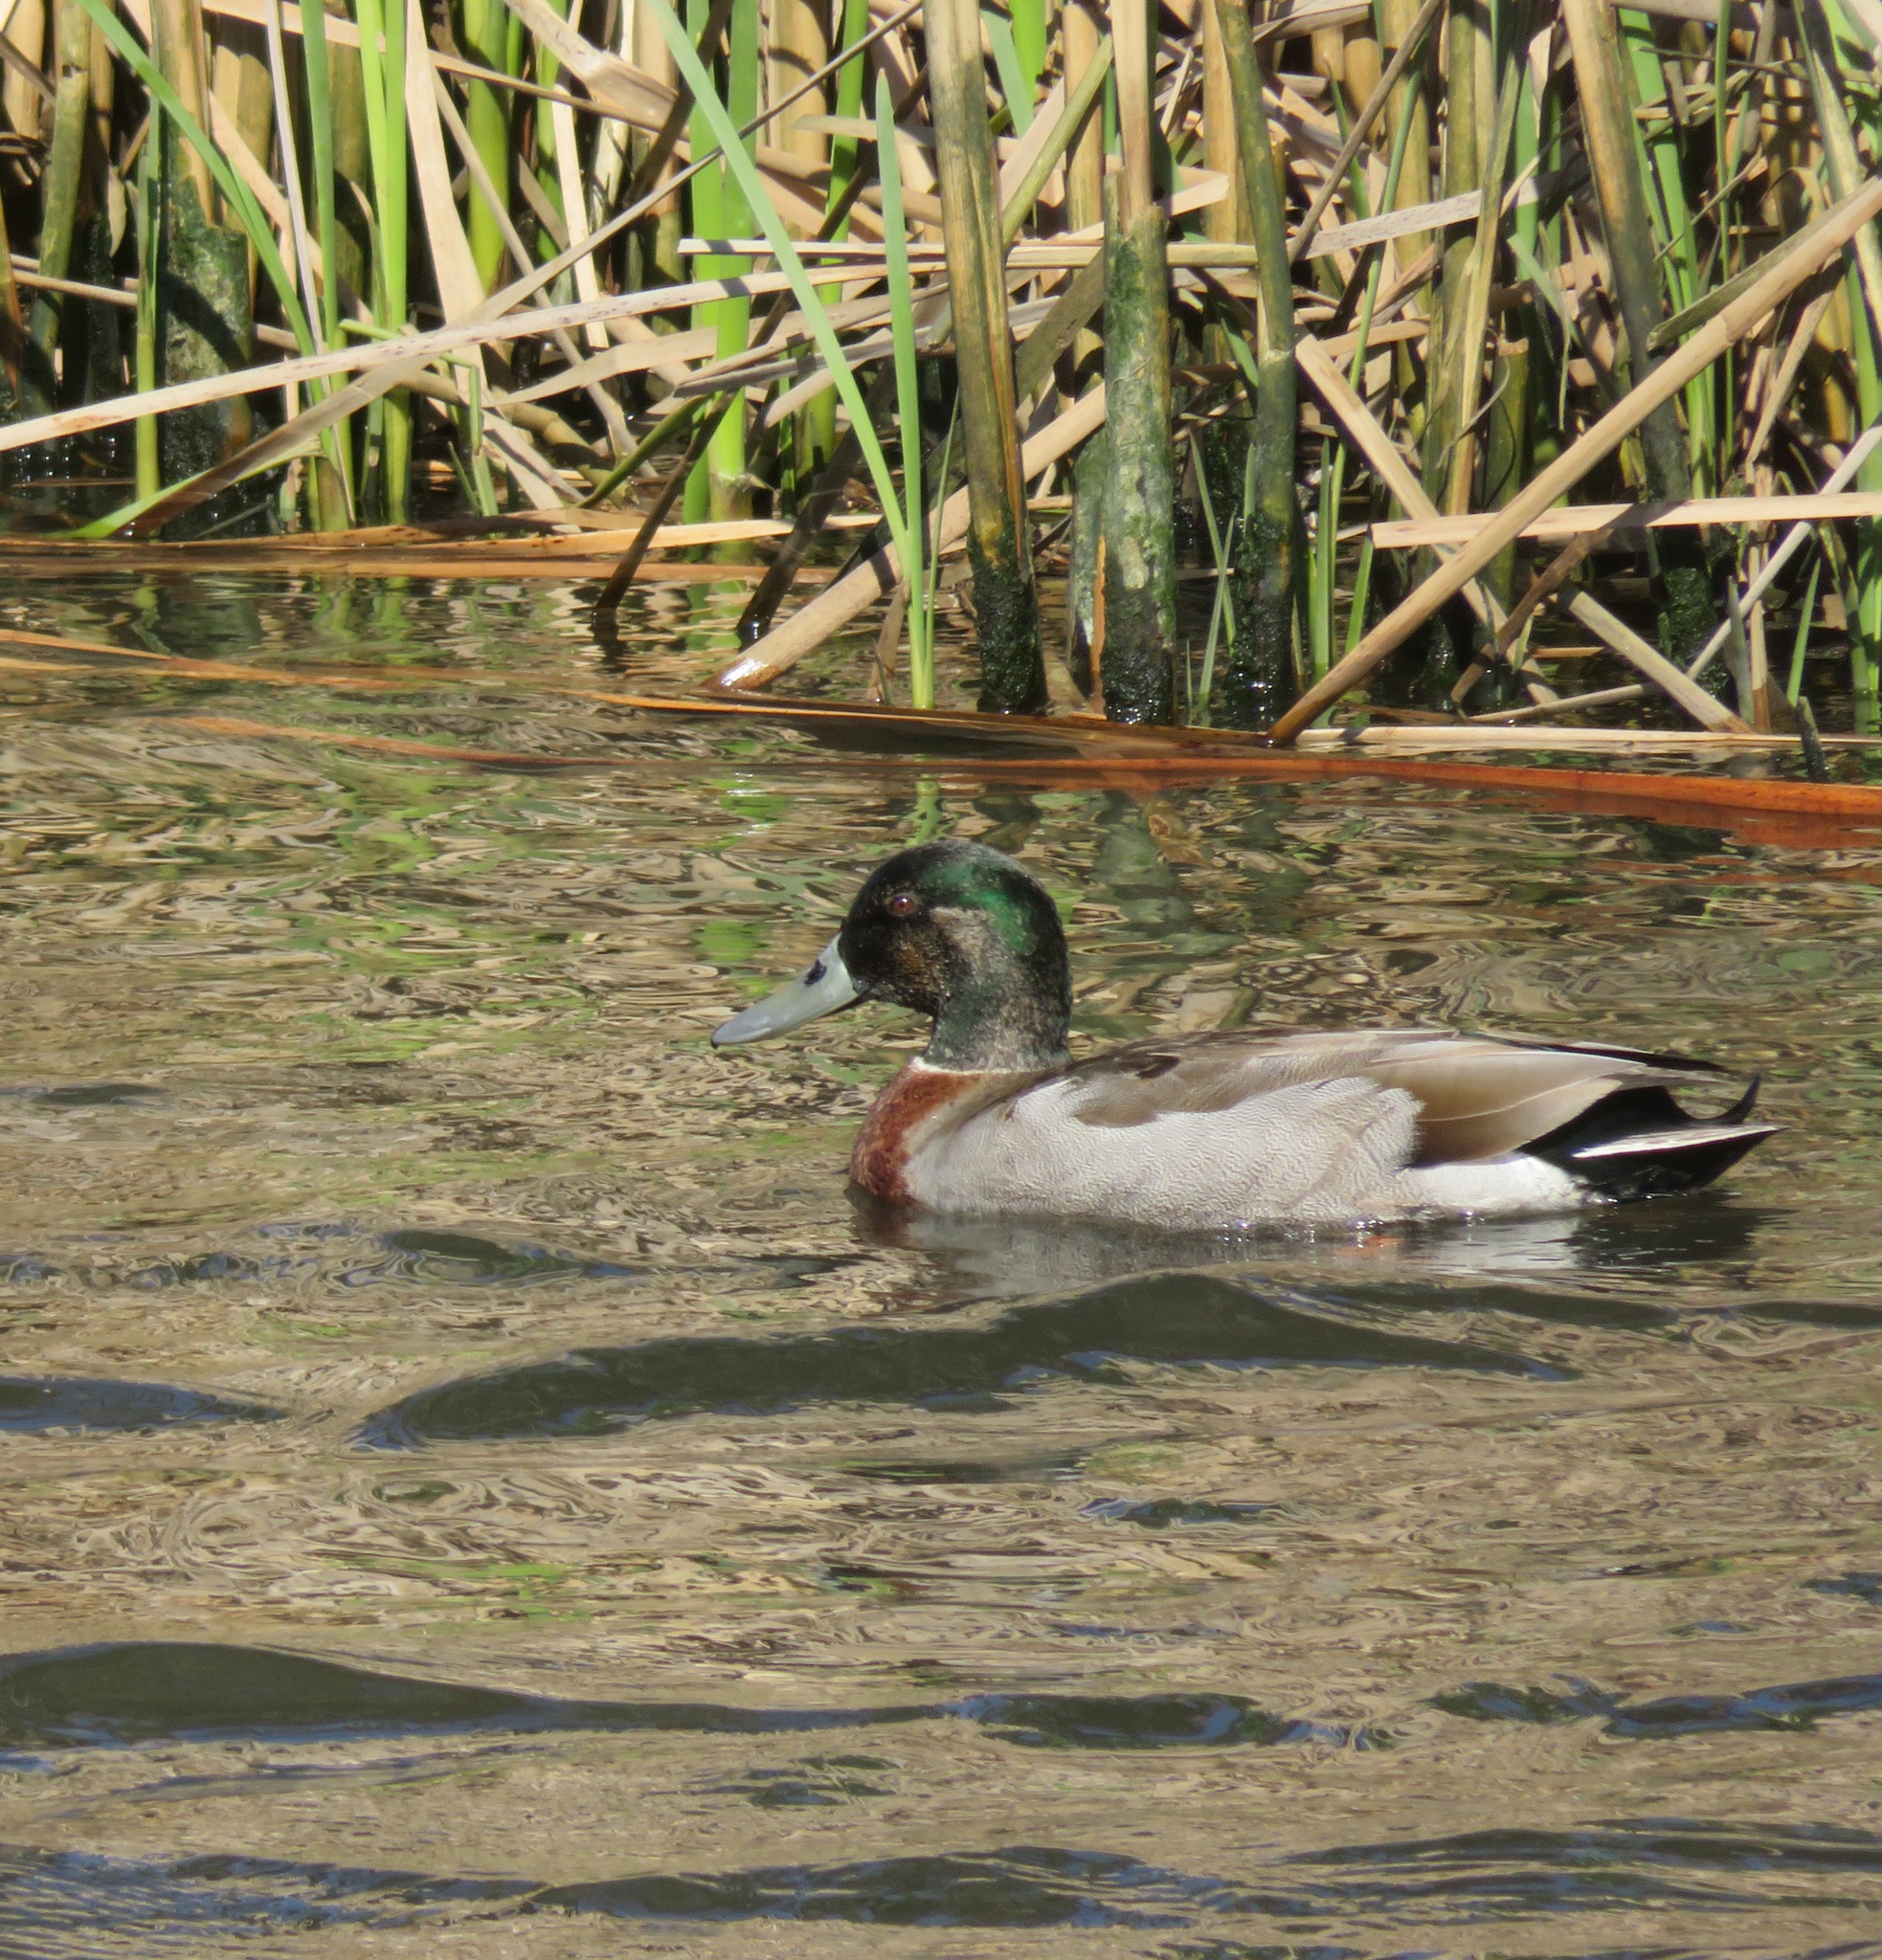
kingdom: Animalia
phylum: Chordata
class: Aves
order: Anseriformes
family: Anatidae
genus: Anas
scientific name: Anas platyrhynchos
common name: Mallard
